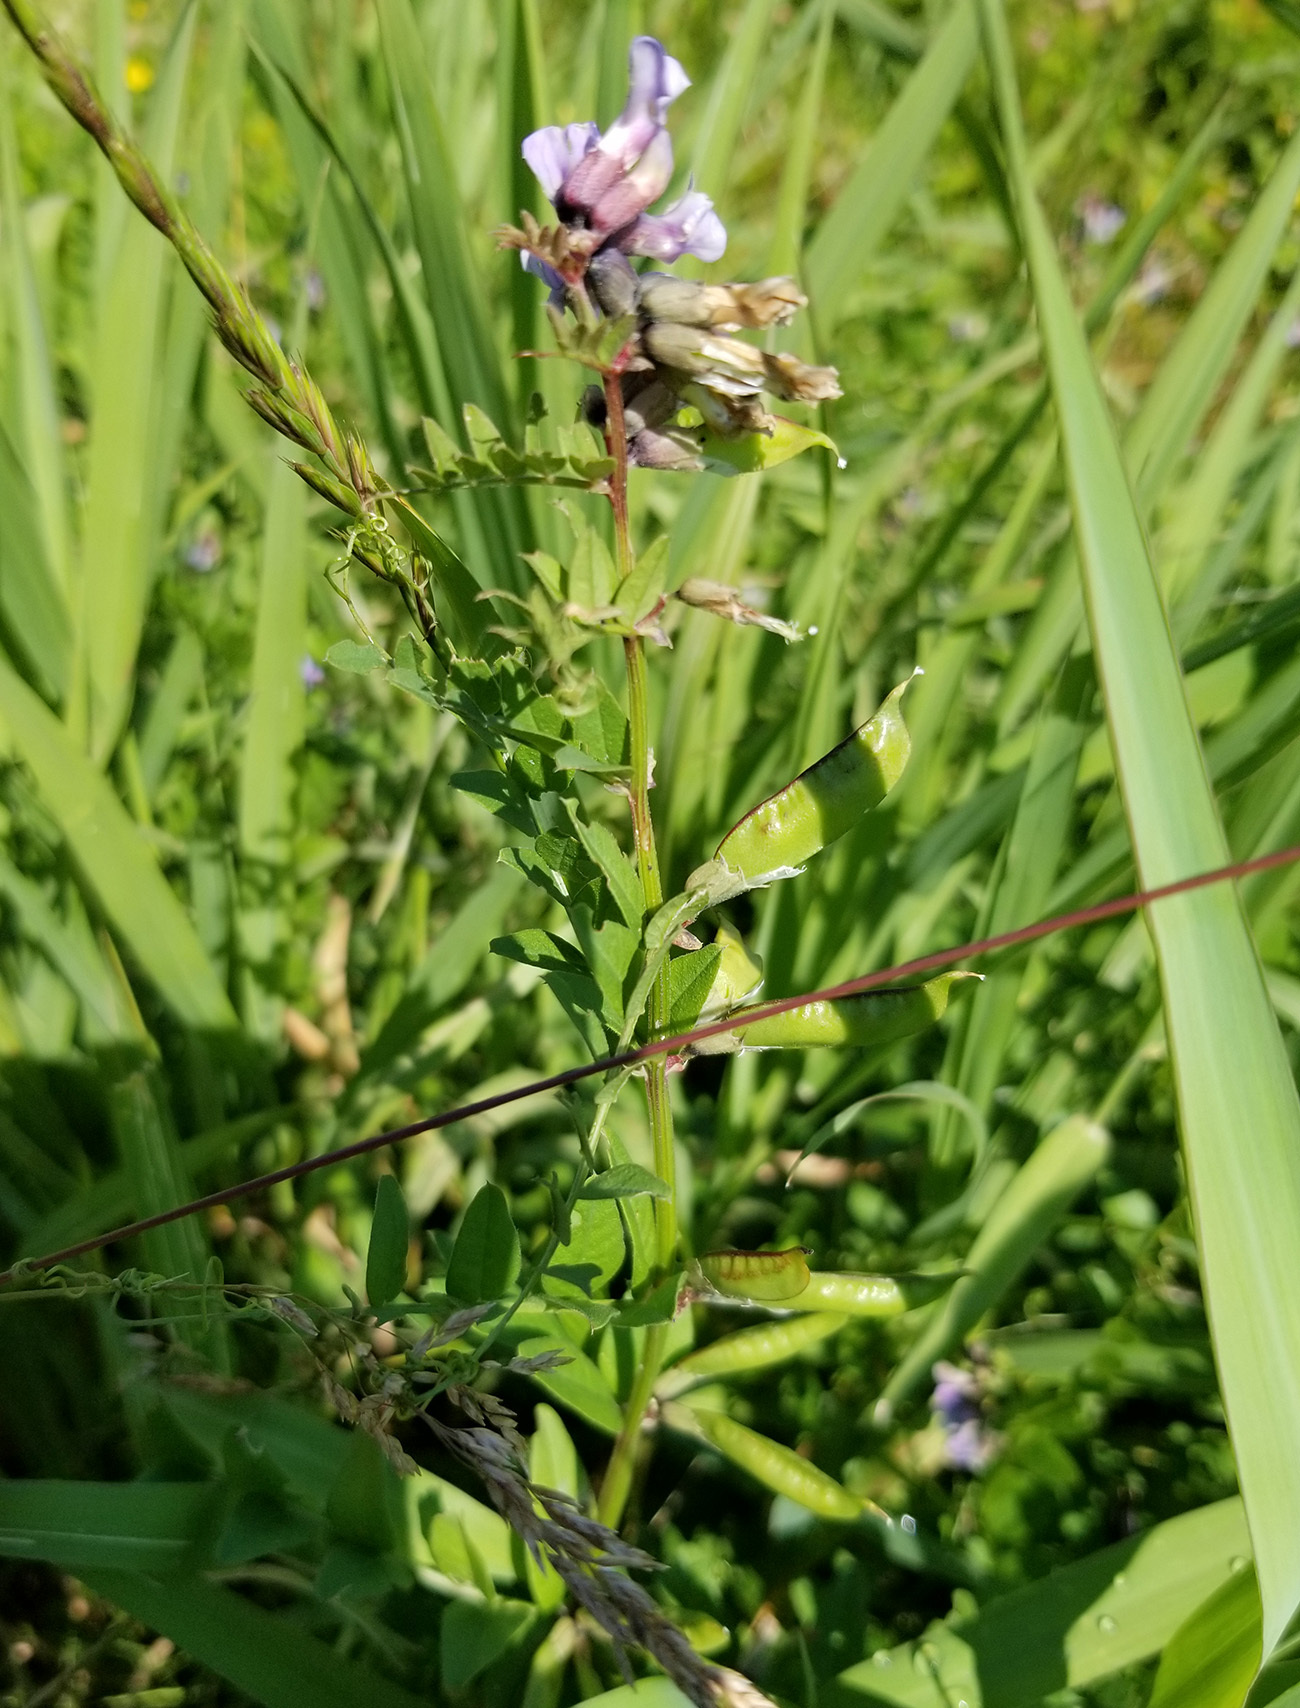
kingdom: Plantae
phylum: Tracheophyta
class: Magnoliopsida
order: Fabales
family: Fabaceae
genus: Vicia
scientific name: Vicia sepium
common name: Bush vetch
